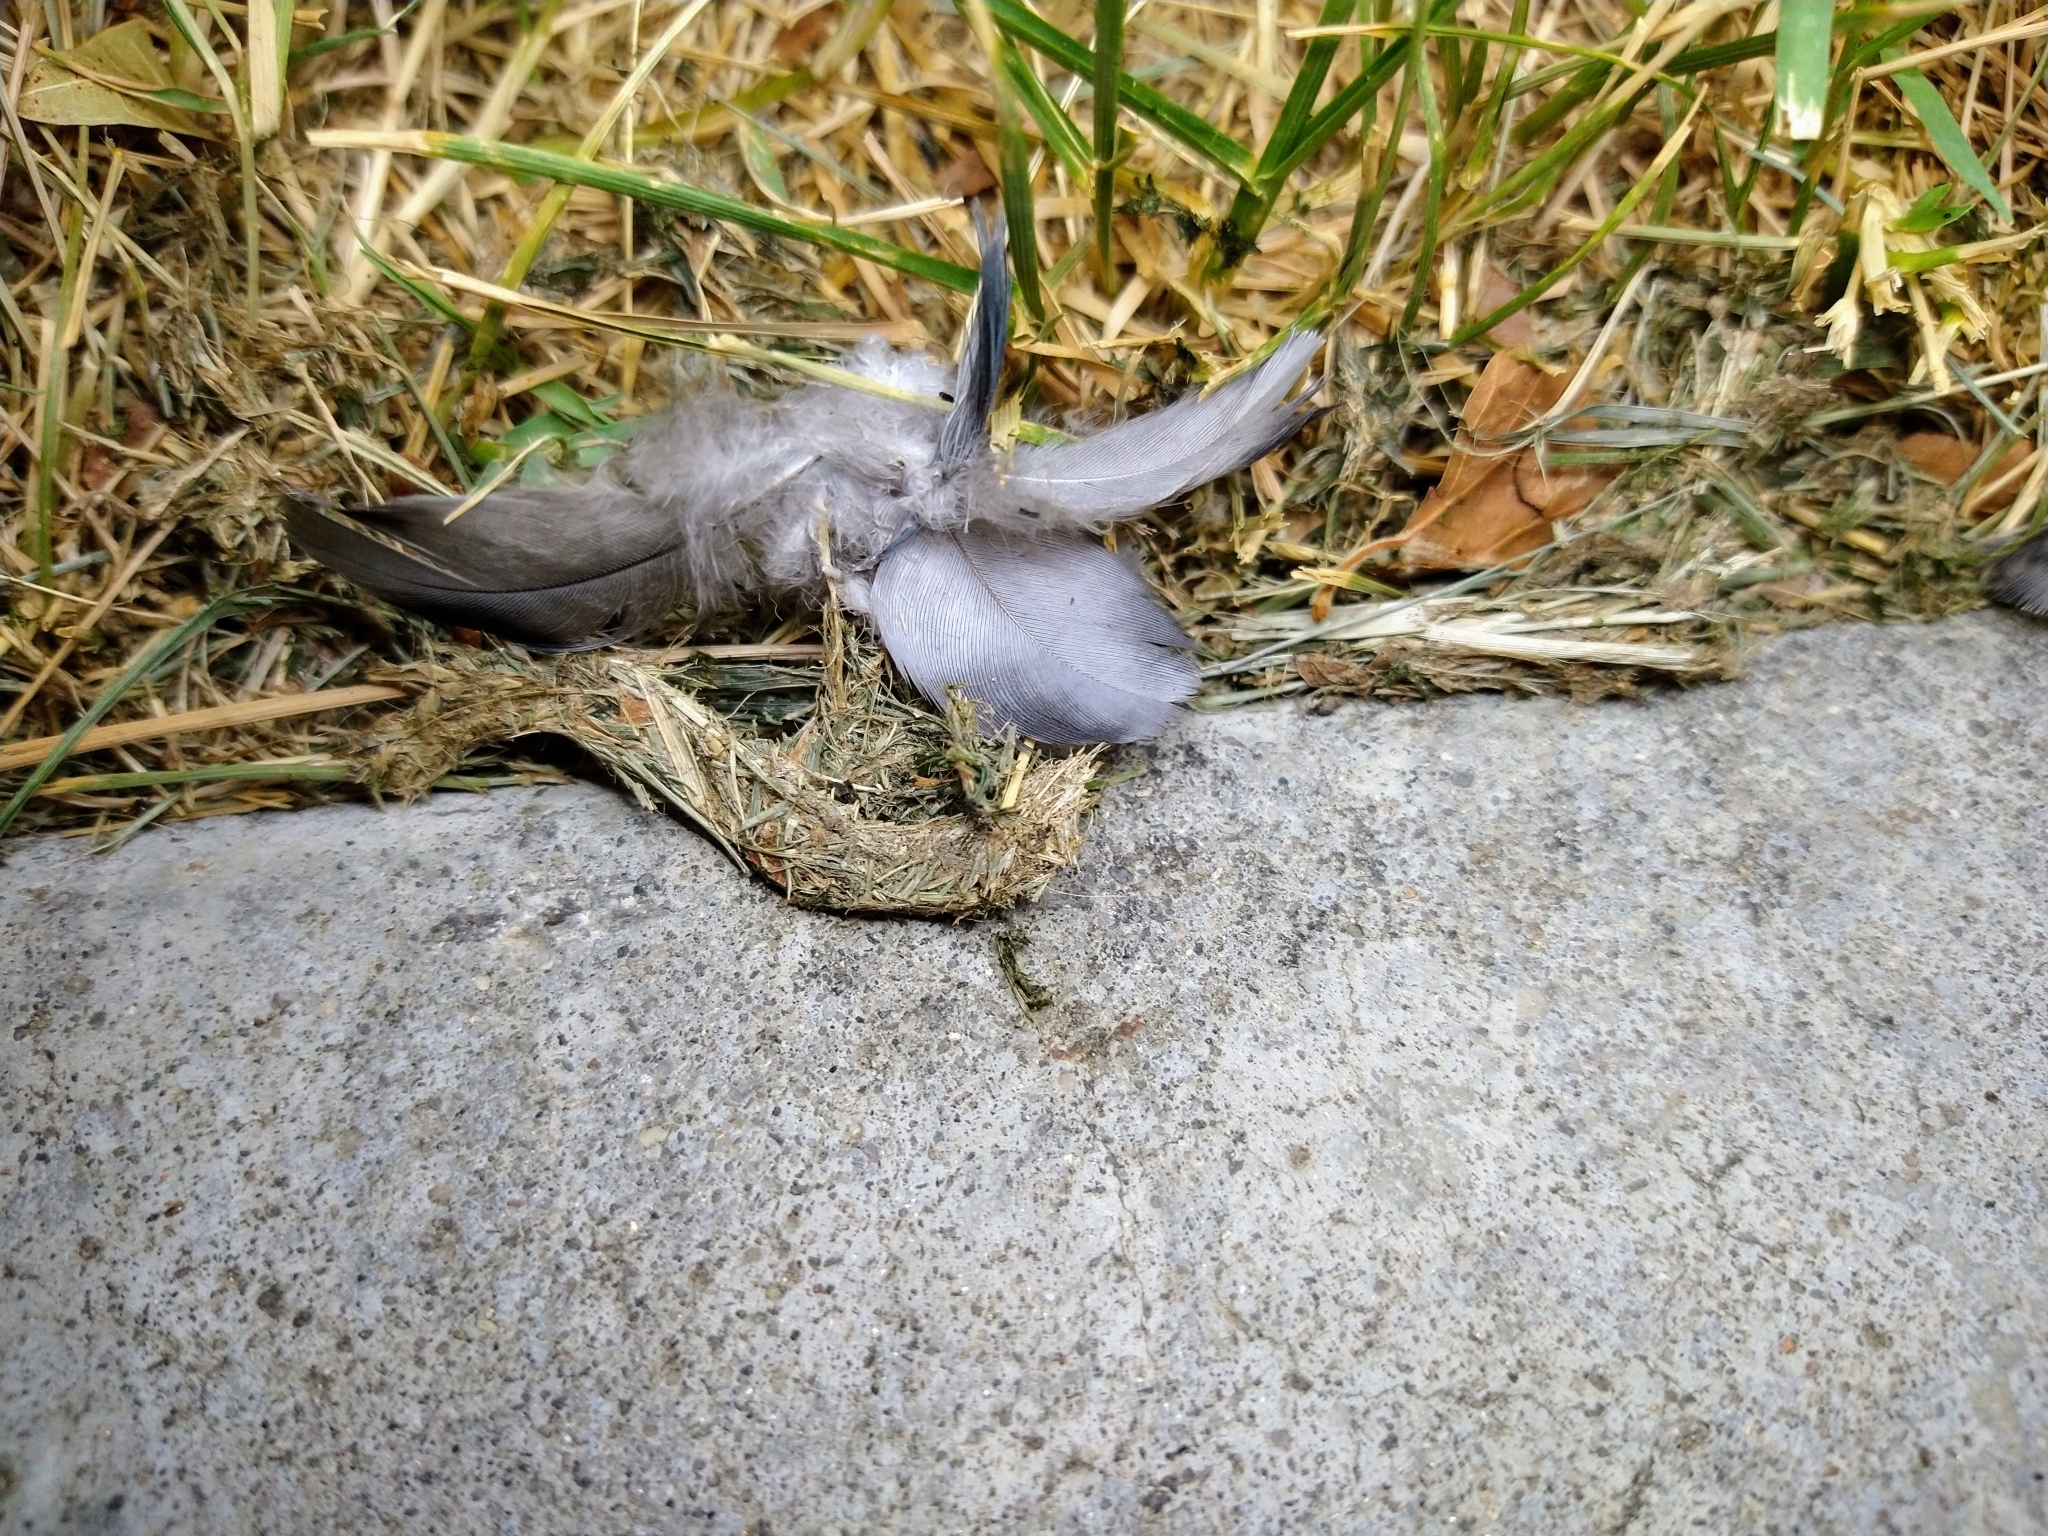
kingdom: Animalia
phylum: Chordata
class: Aves
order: Columbiformes
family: Columbidae
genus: Columba
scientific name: Columba livia
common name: Rock pigeon
